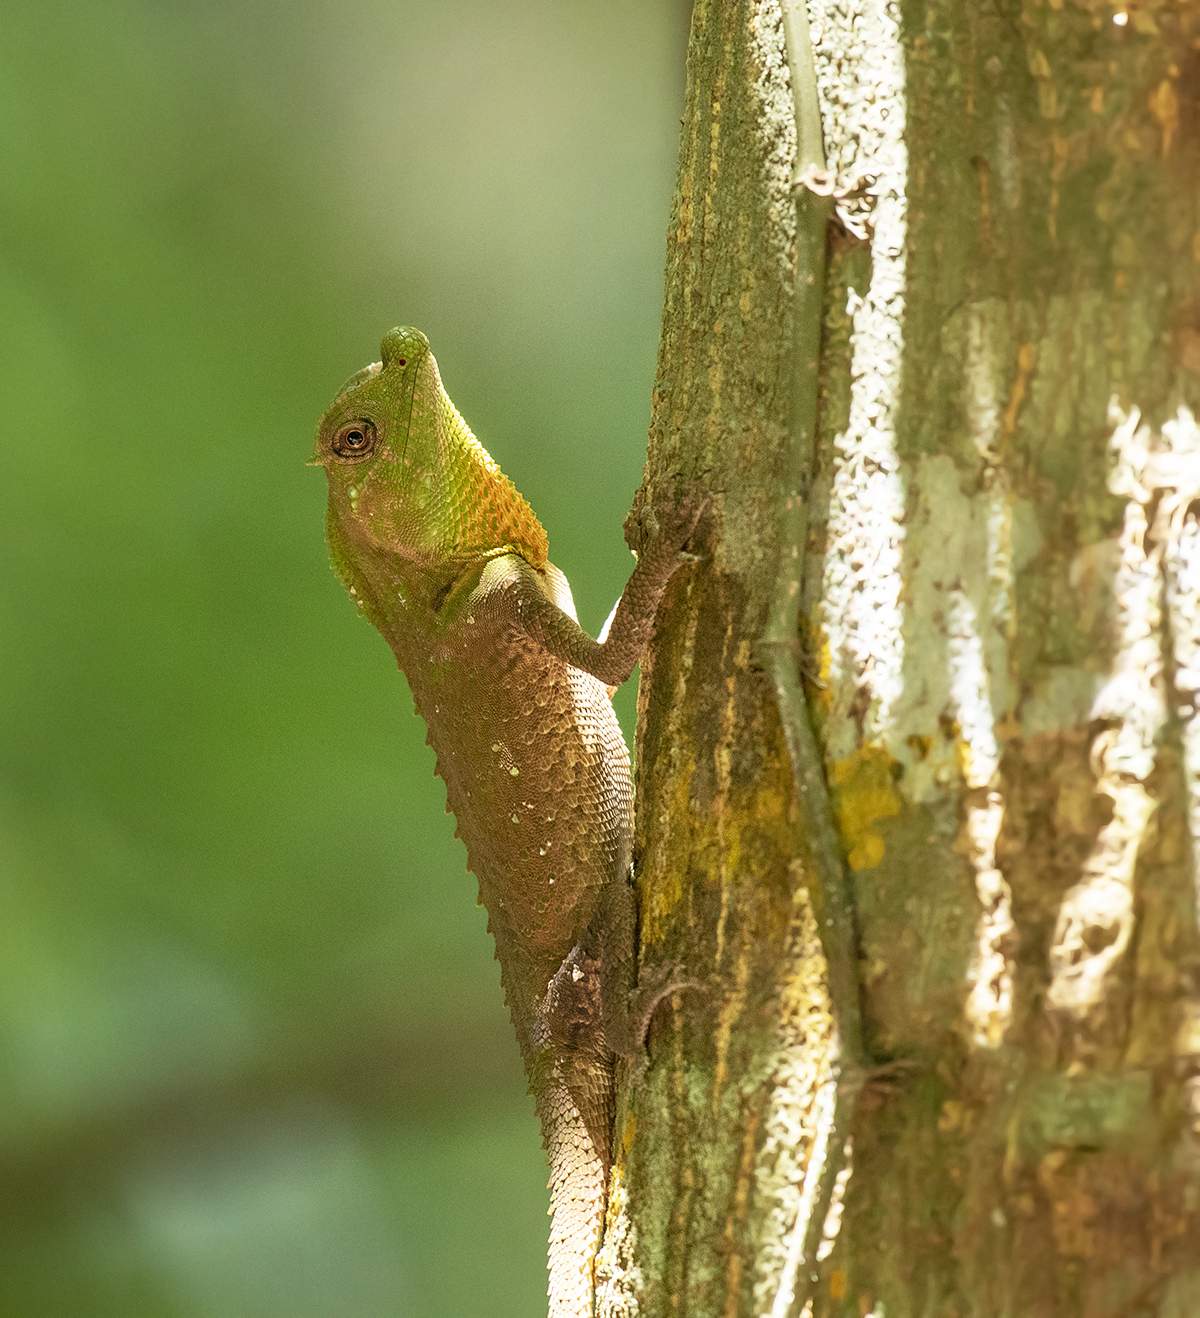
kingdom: Animalia
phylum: Chordata
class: Squamata
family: Agamidae
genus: Lyriocephalus
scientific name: Lyriocephalus scutatus
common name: Hump snout lizard
